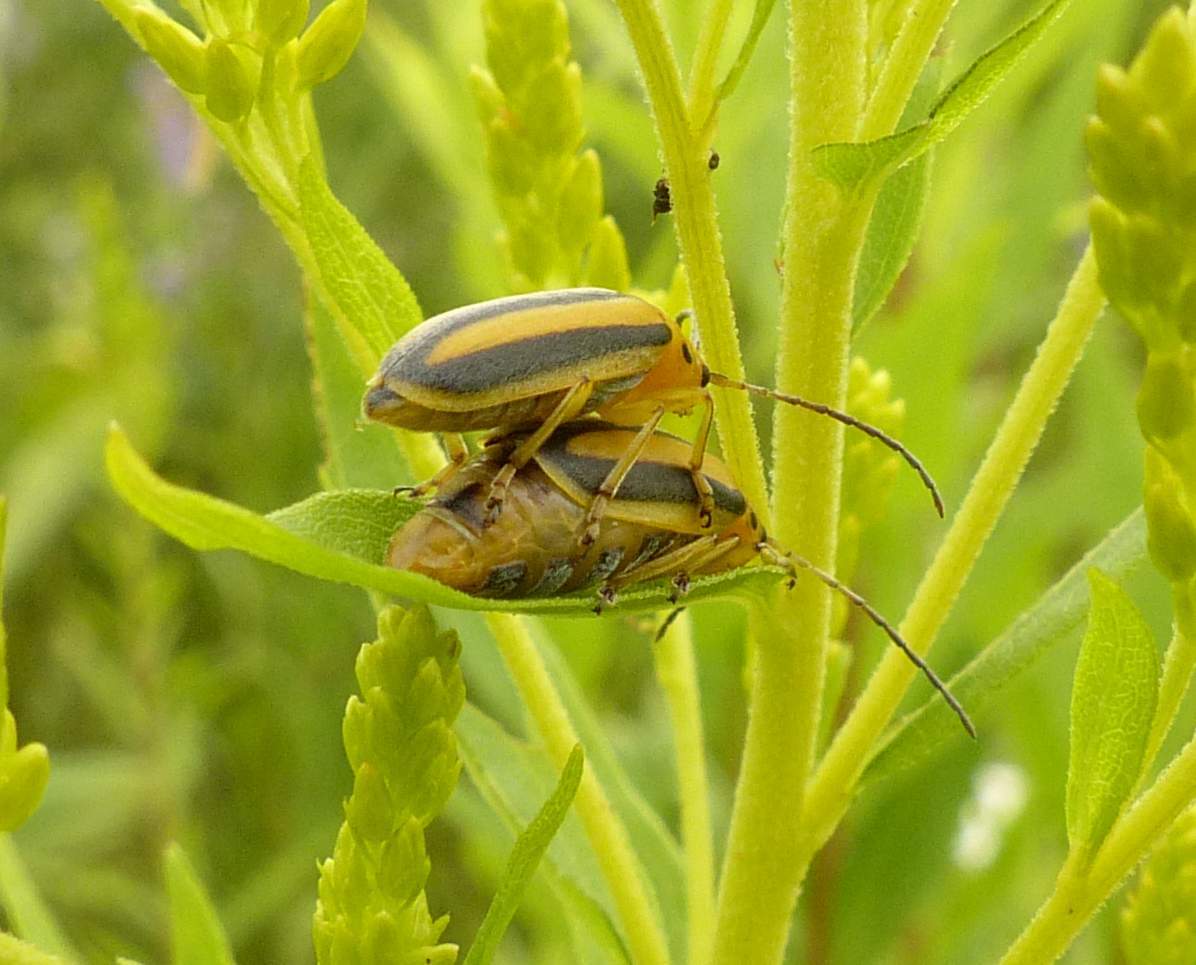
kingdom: Animalia
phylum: Arthropoda
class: Insecta
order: Coleoptera
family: Chrysomelidae
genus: Trirhabda
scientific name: Trirhabda canadensis
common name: Goldenrod leaf beetle
